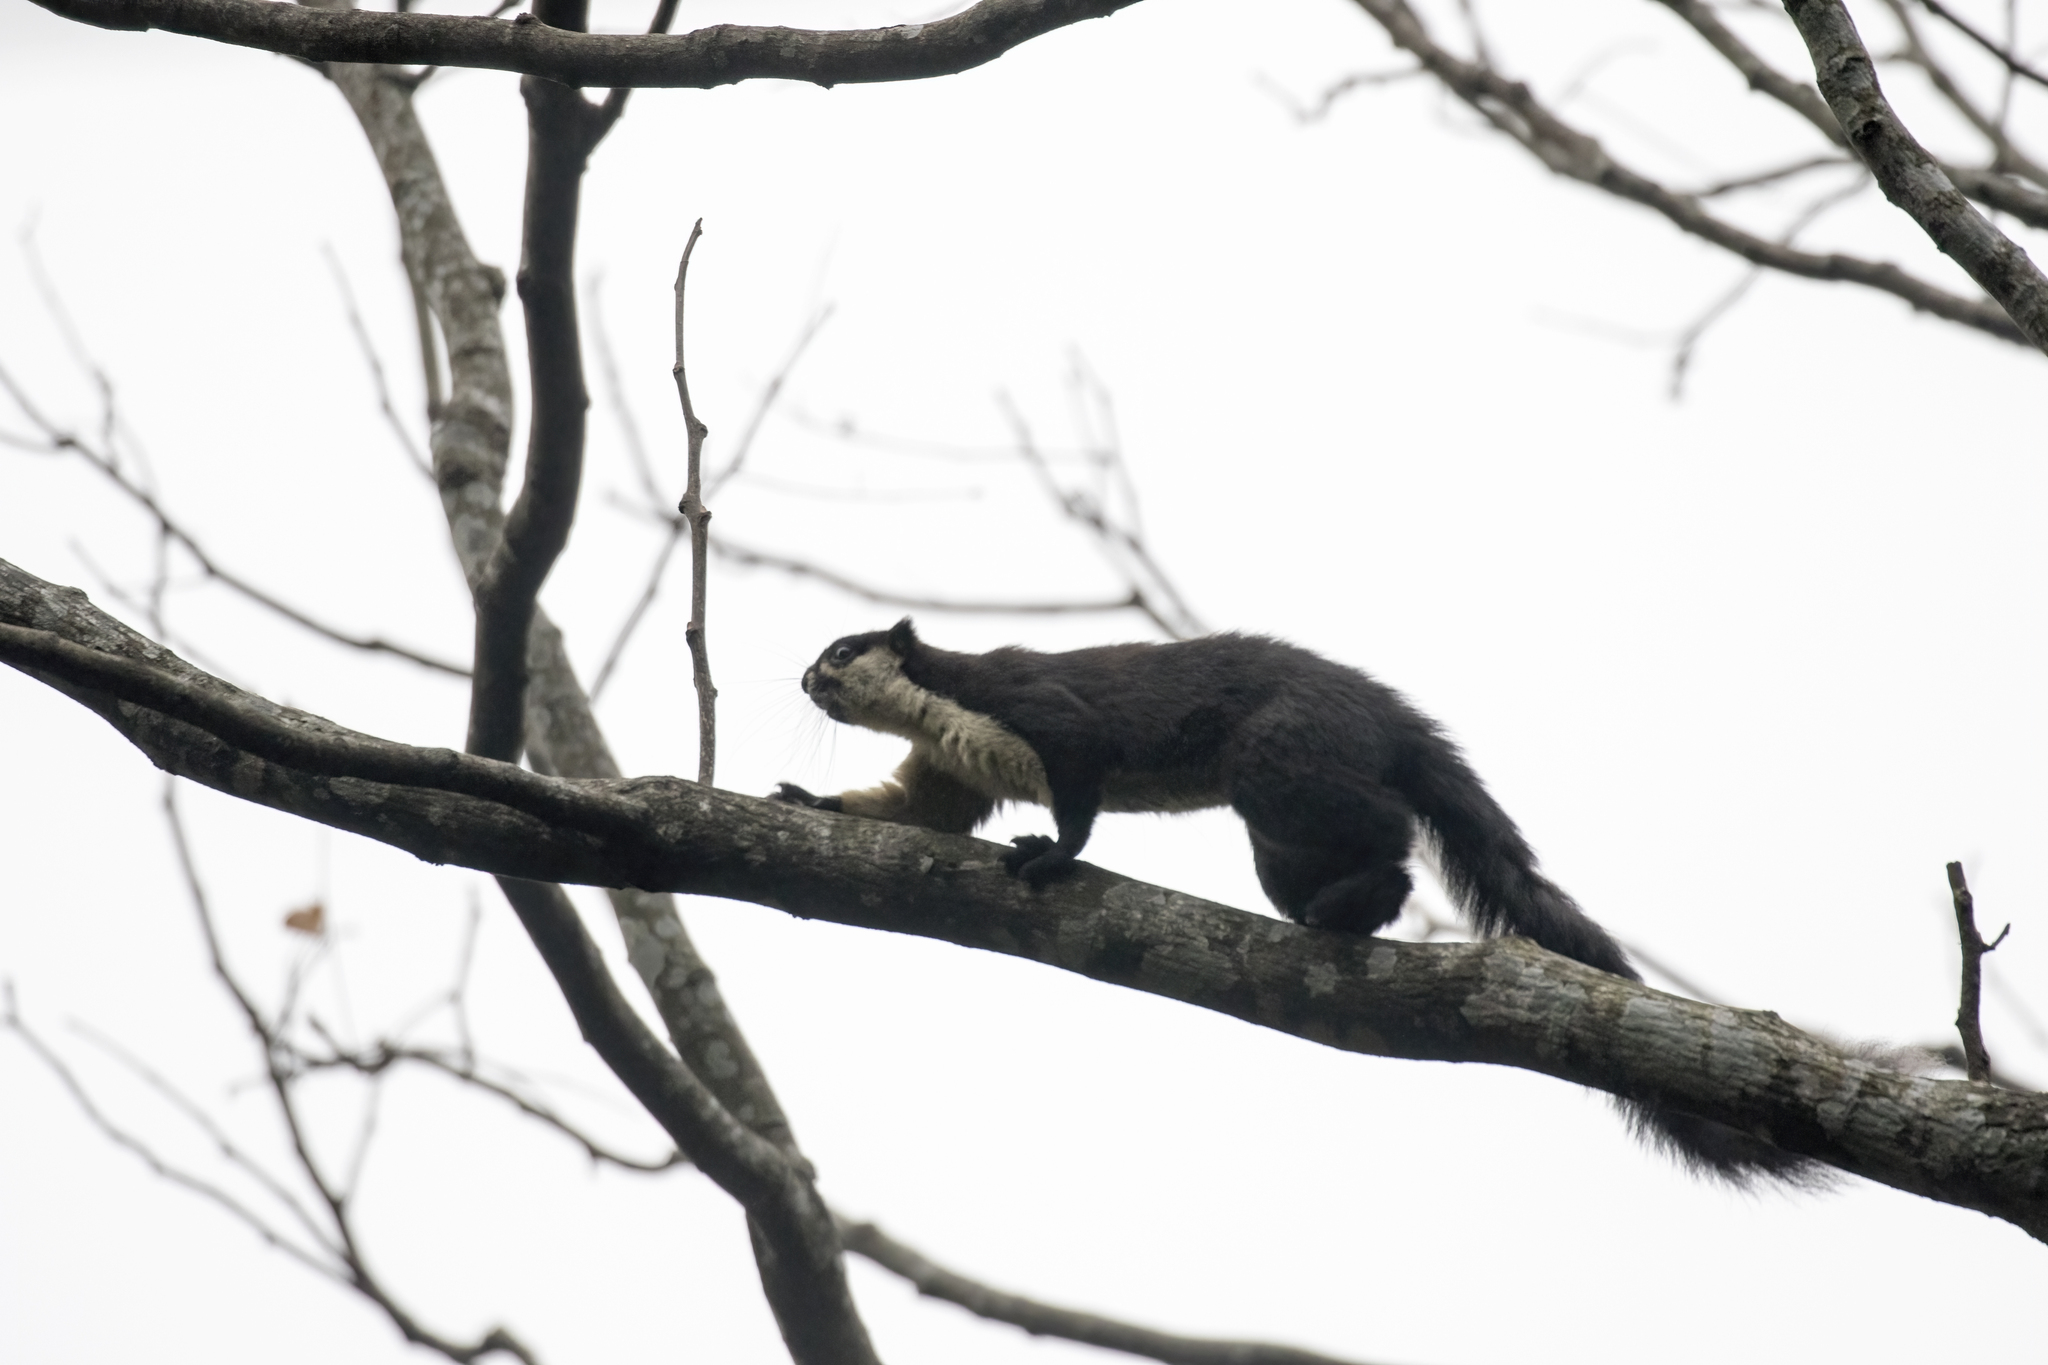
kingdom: Animalia
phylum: Chordata
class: Mammalia
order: Rodentia
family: Sciuridae
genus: Ratufa
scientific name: Ratufa bicolor
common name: Black giant squirrel
